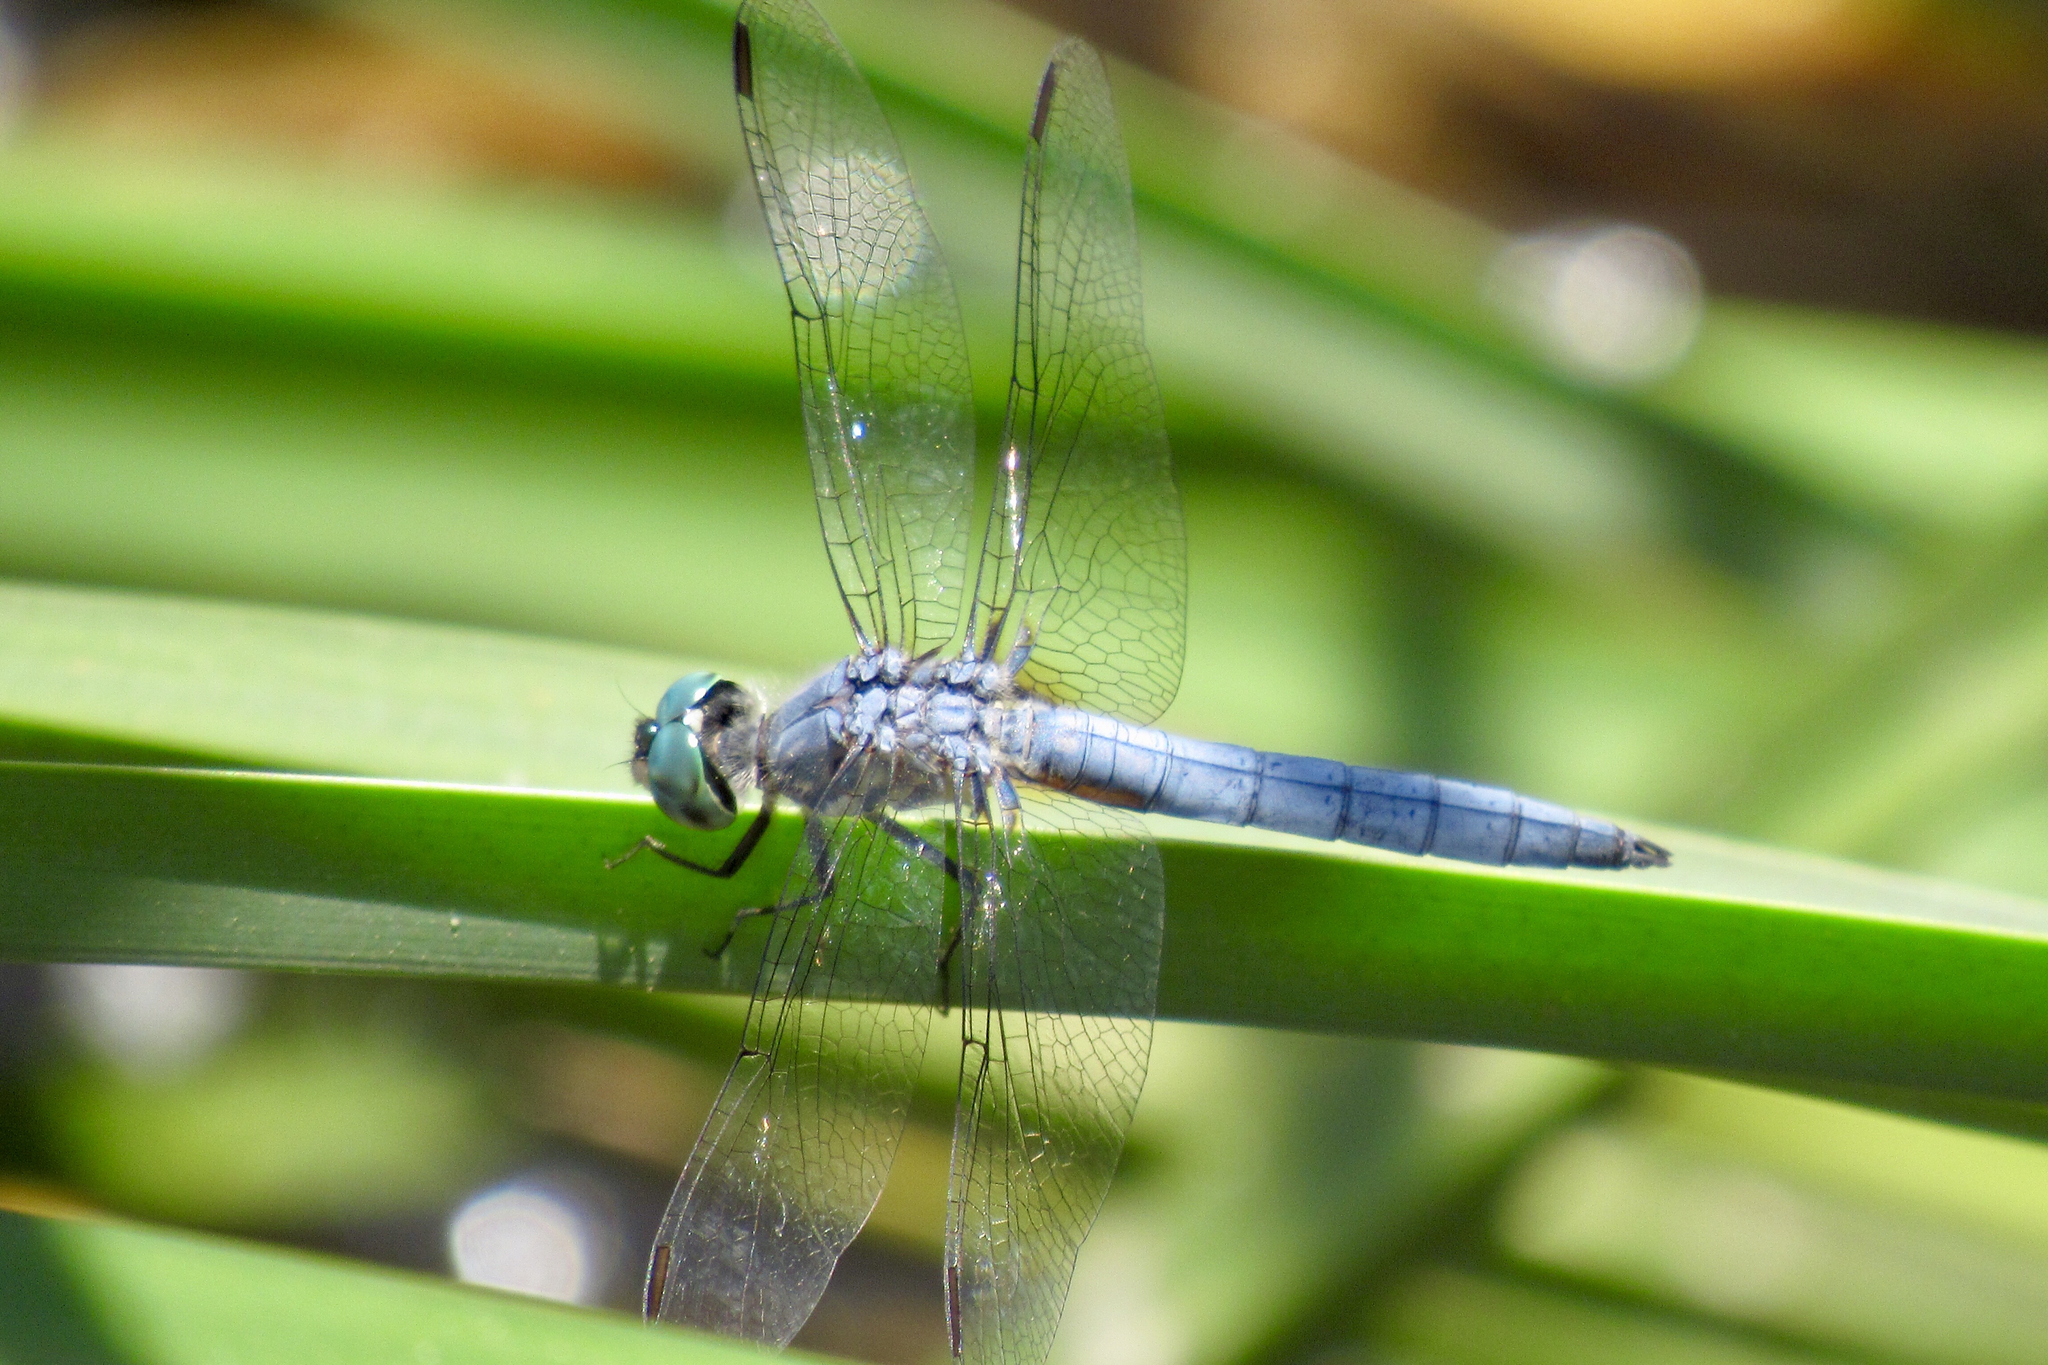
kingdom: Animalia
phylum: Arthropoda
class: Insecta
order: Odonata
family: Libellulidae
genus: Pachydiplax
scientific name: Pachydiplax longipennis
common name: Blue dasher
